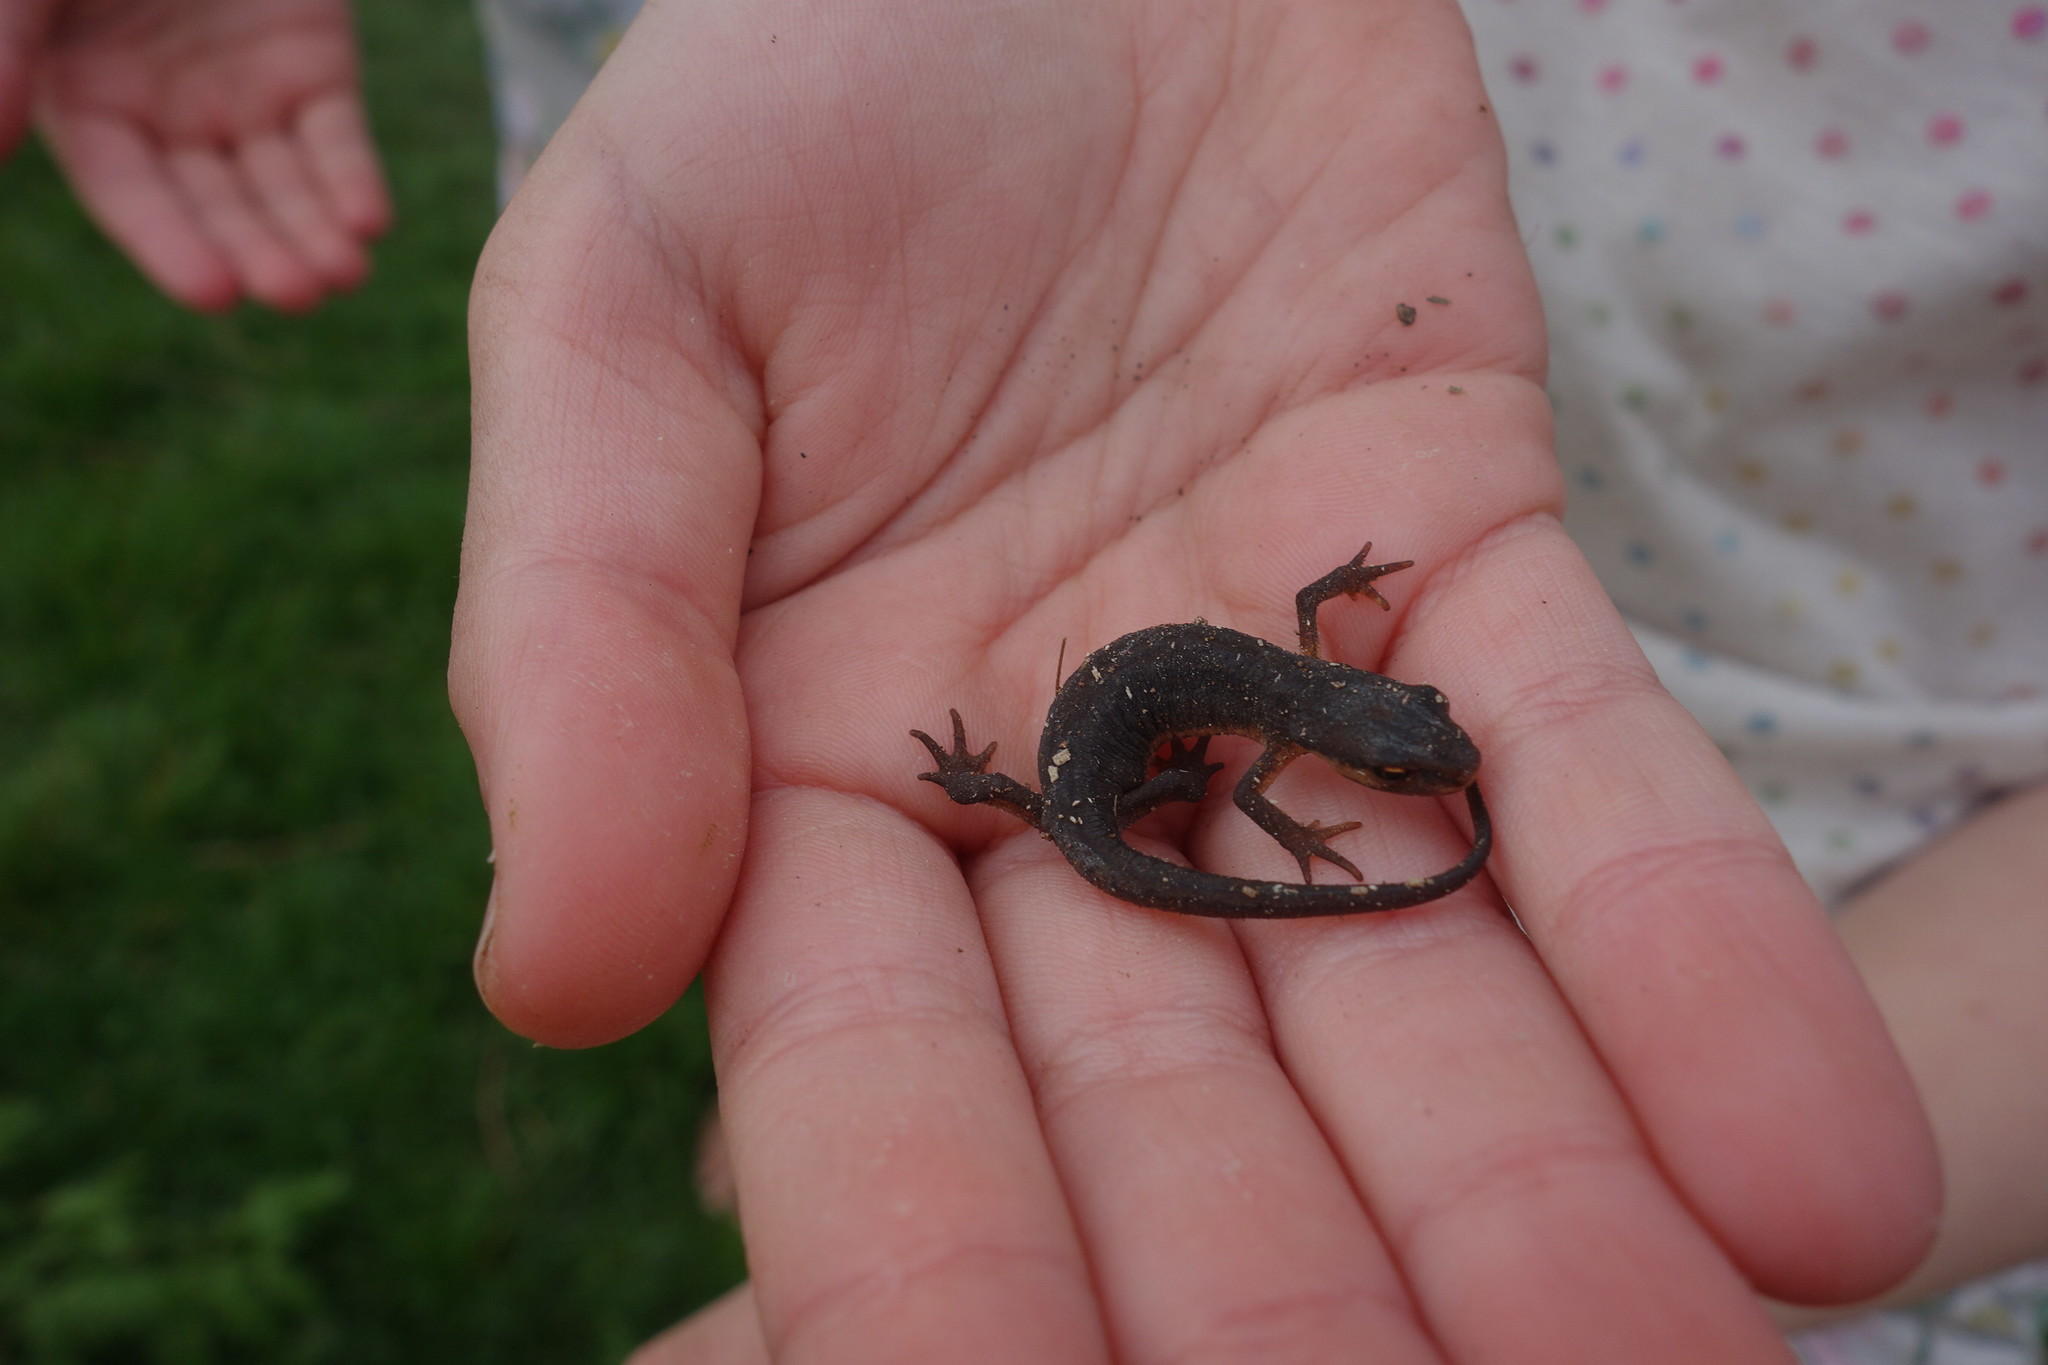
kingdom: Animalia
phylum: Chordata
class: Amphibia
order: Caudata
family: Salamandridae
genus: Lissotriton
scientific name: Lissotriton vulgaris
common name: Smooth newt
